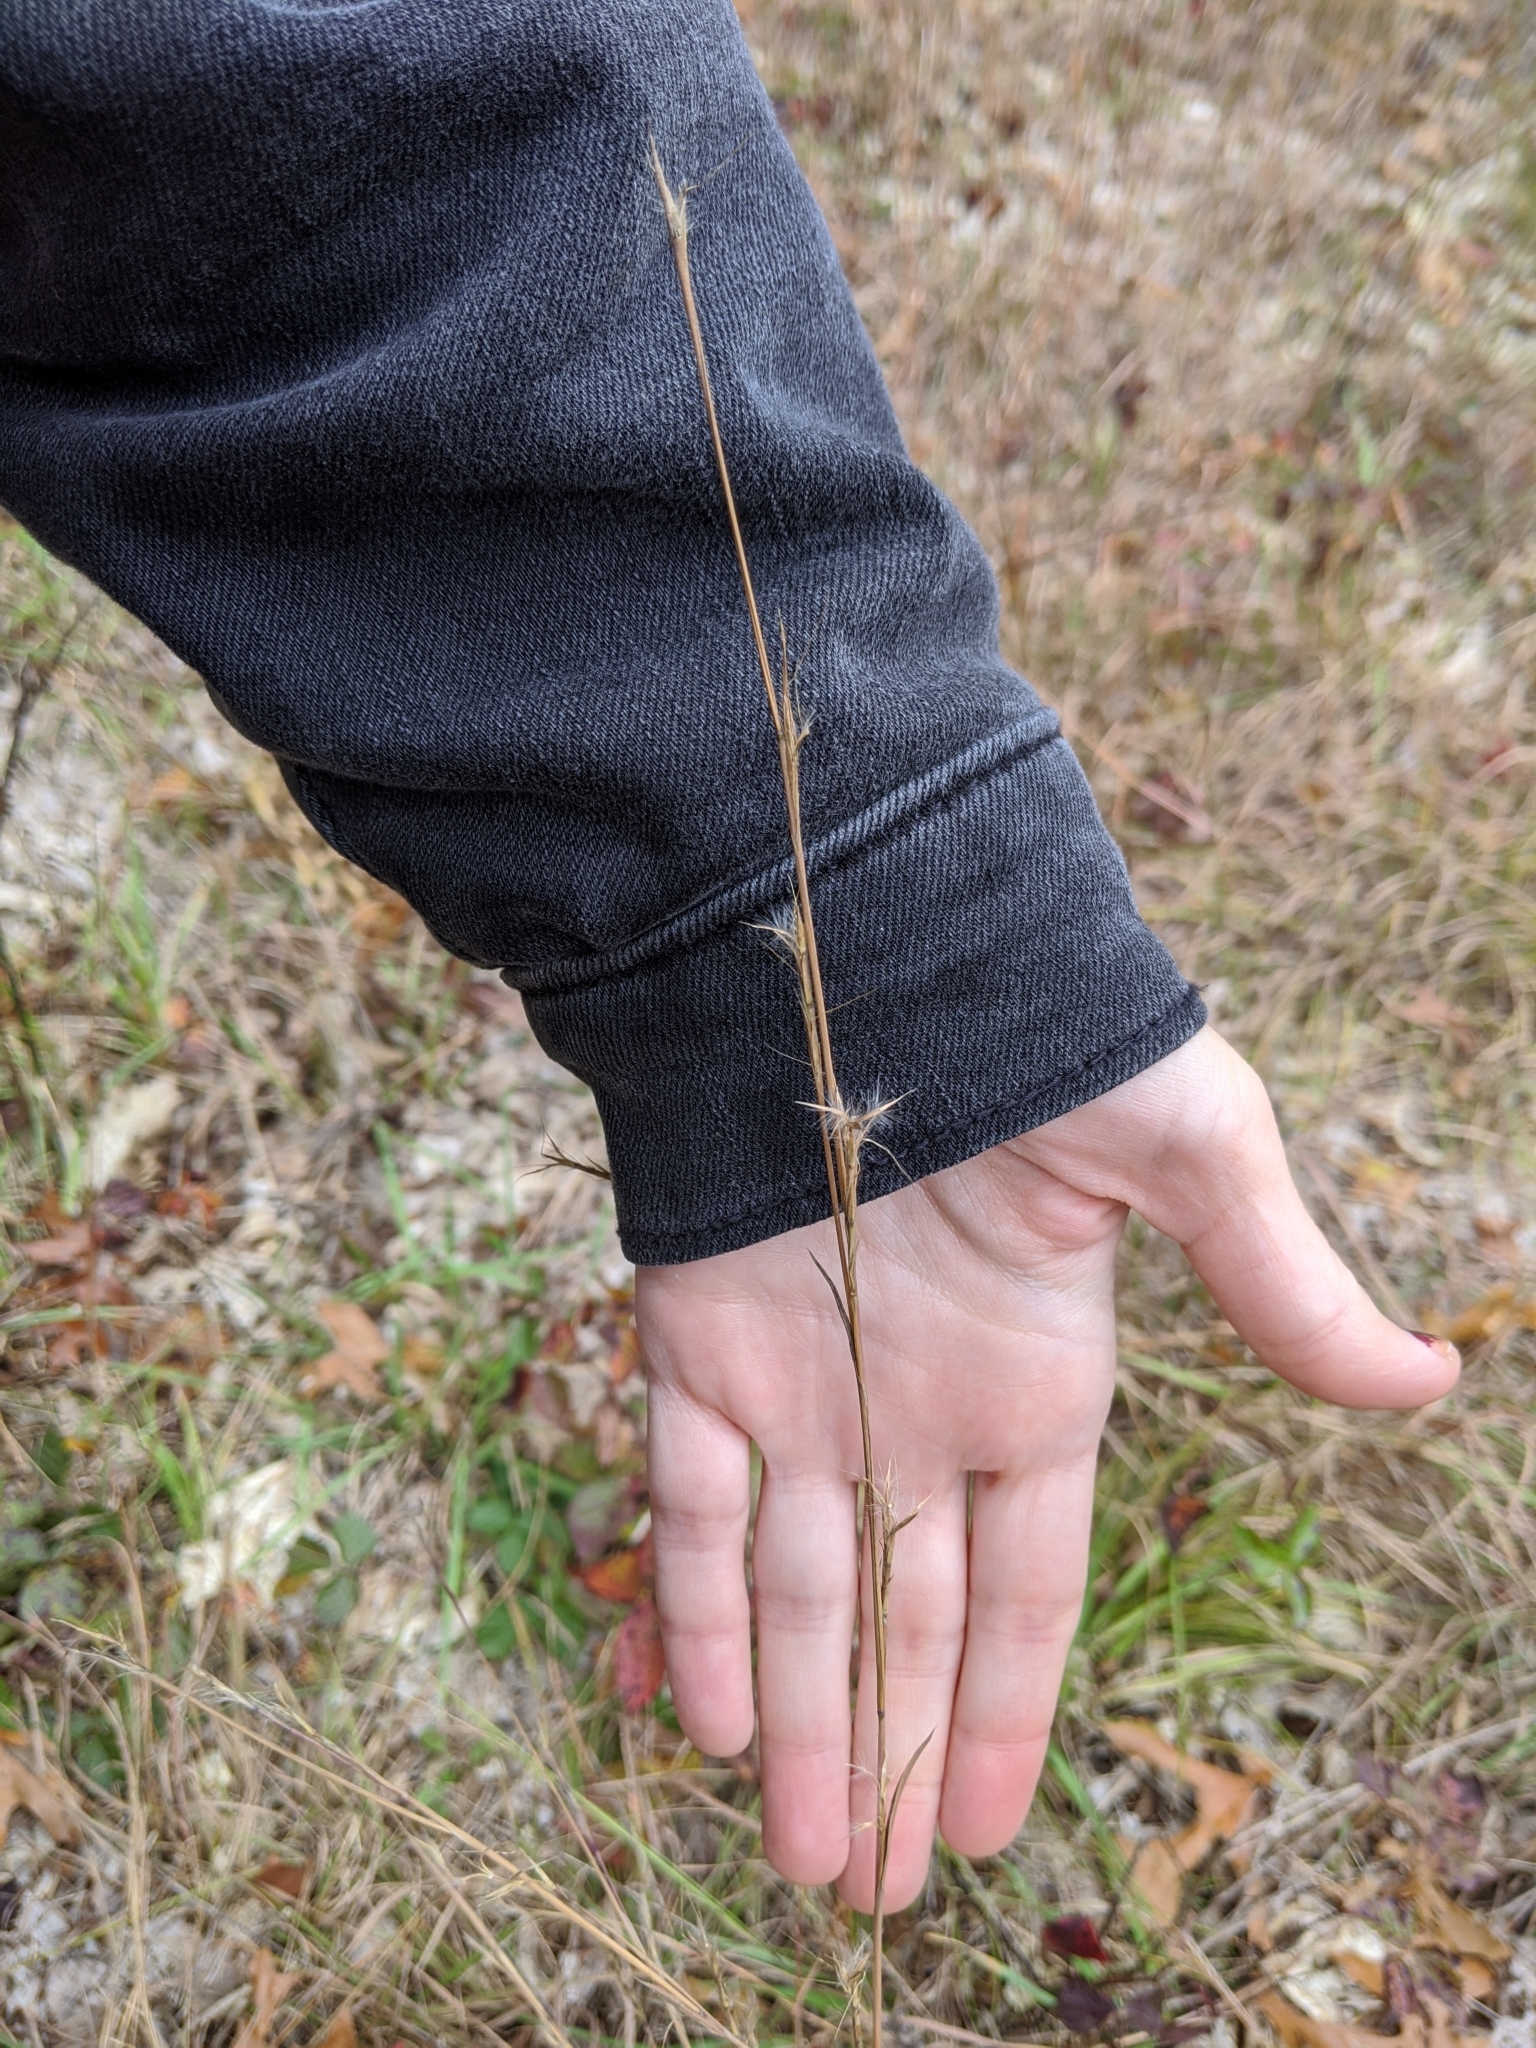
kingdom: Plantae
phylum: Tracheophyta
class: Liliopsida
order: Poales
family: Poaceae
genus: Andropogon
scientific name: Andropogon virginicus
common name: Broomsedge bluestem
